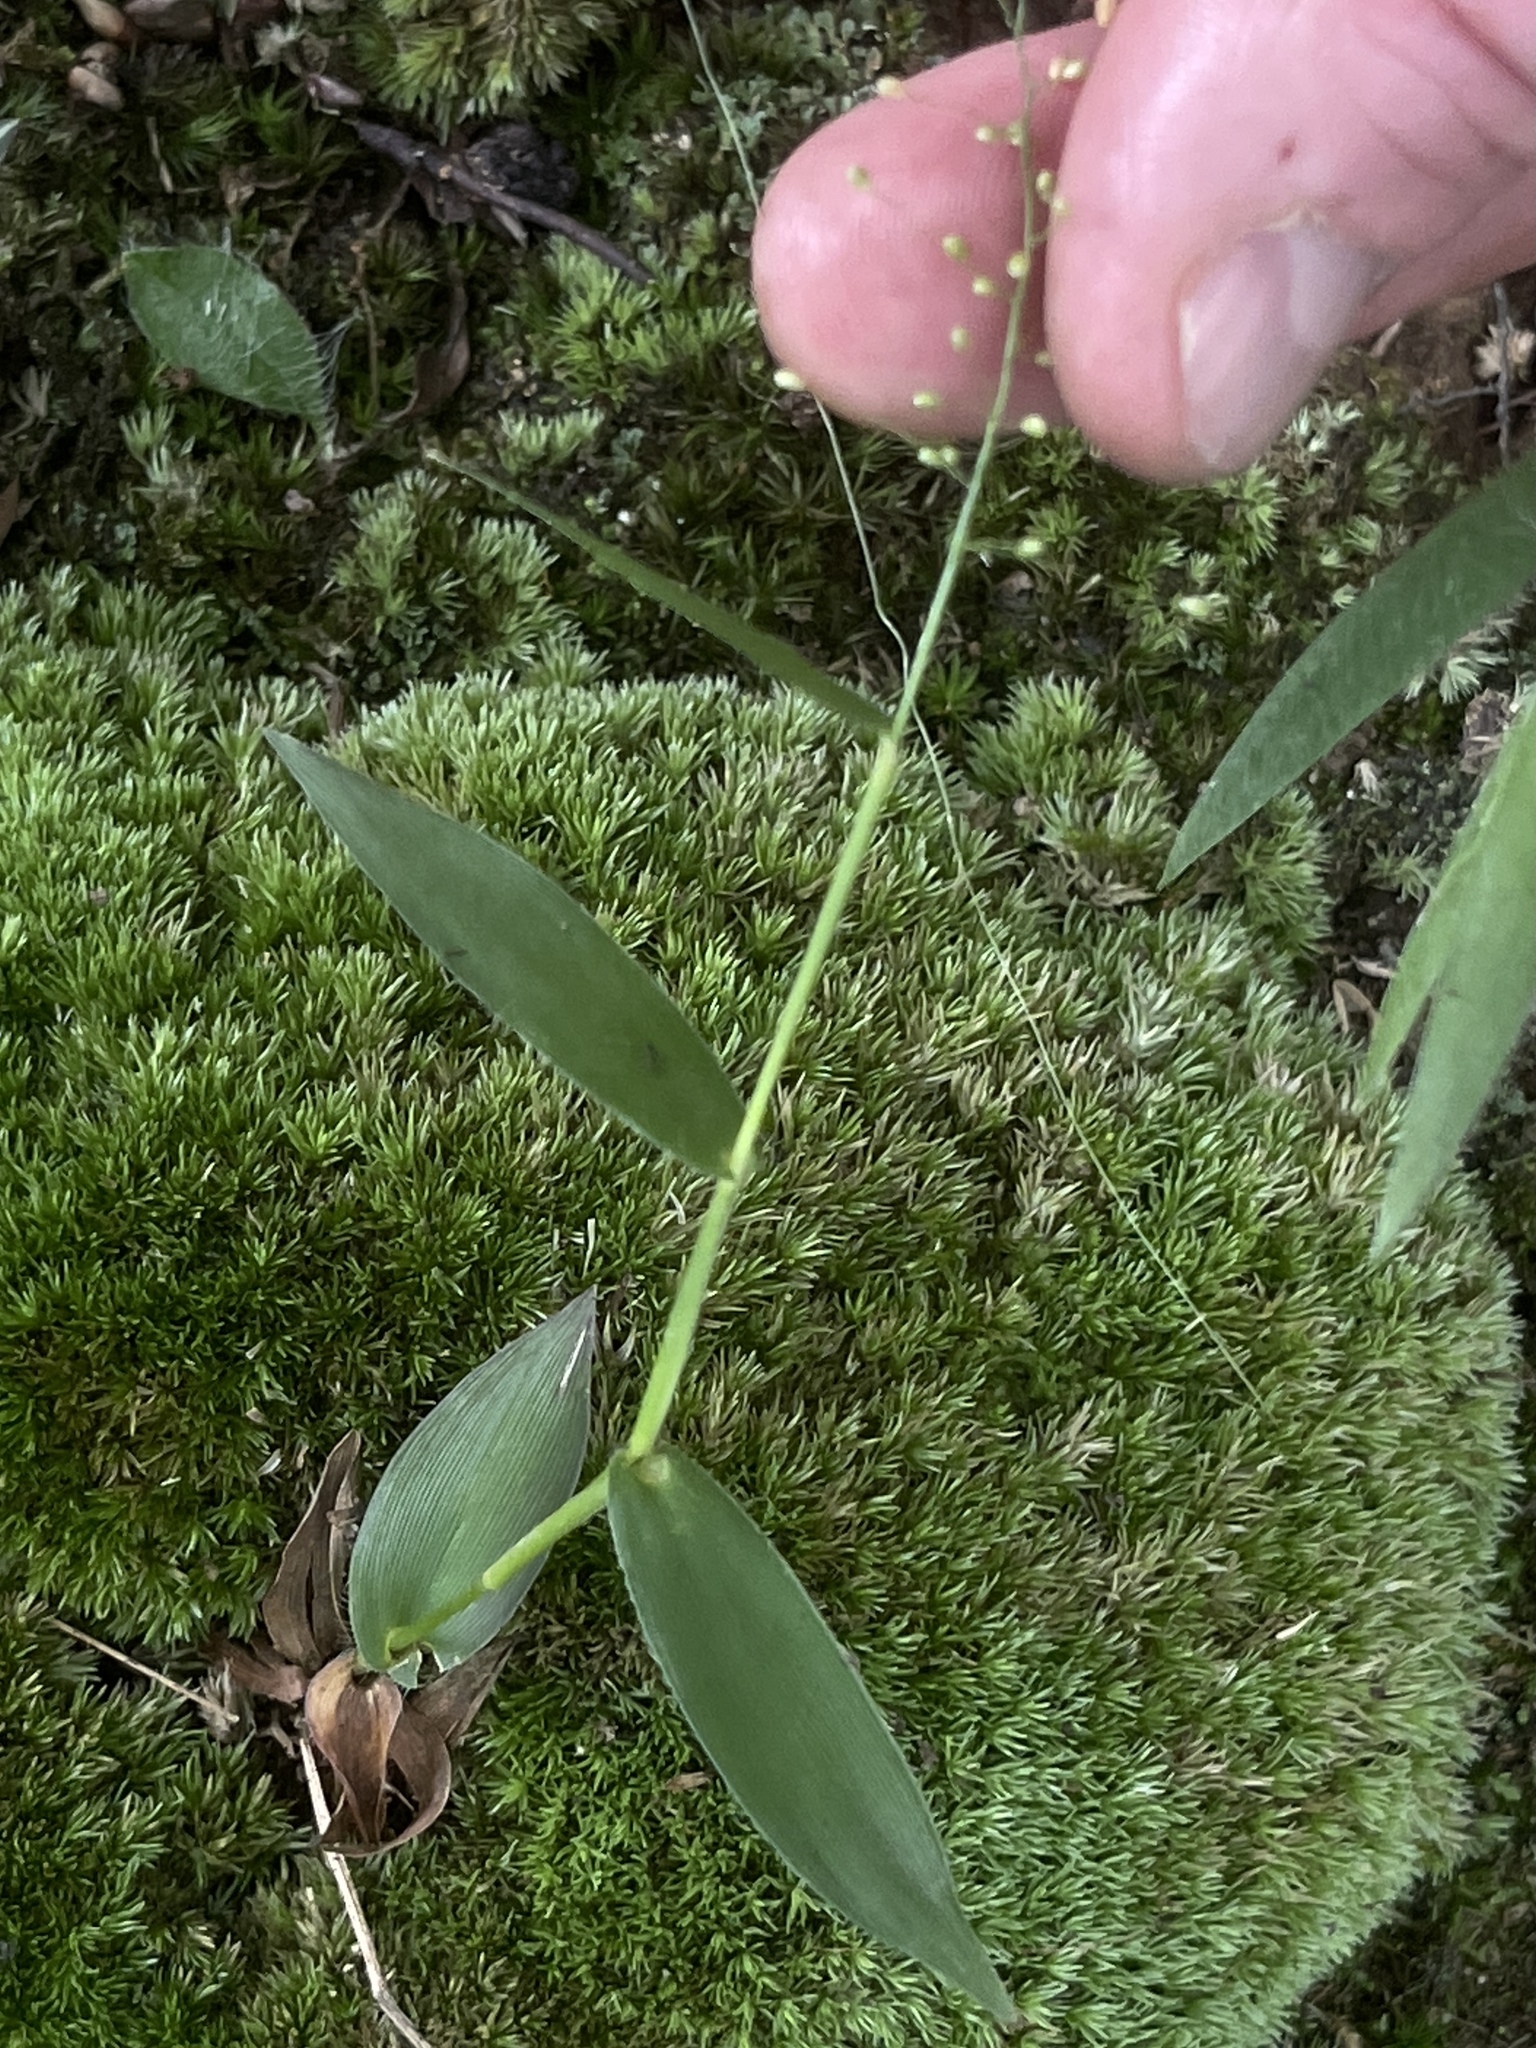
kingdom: Plantae
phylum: Tracheophyta
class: Liliopsida
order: Poales
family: Poaceae
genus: Dichanthelium
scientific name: Dichanthelium sphaerocarpon
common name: Round-fruited panicgrass
